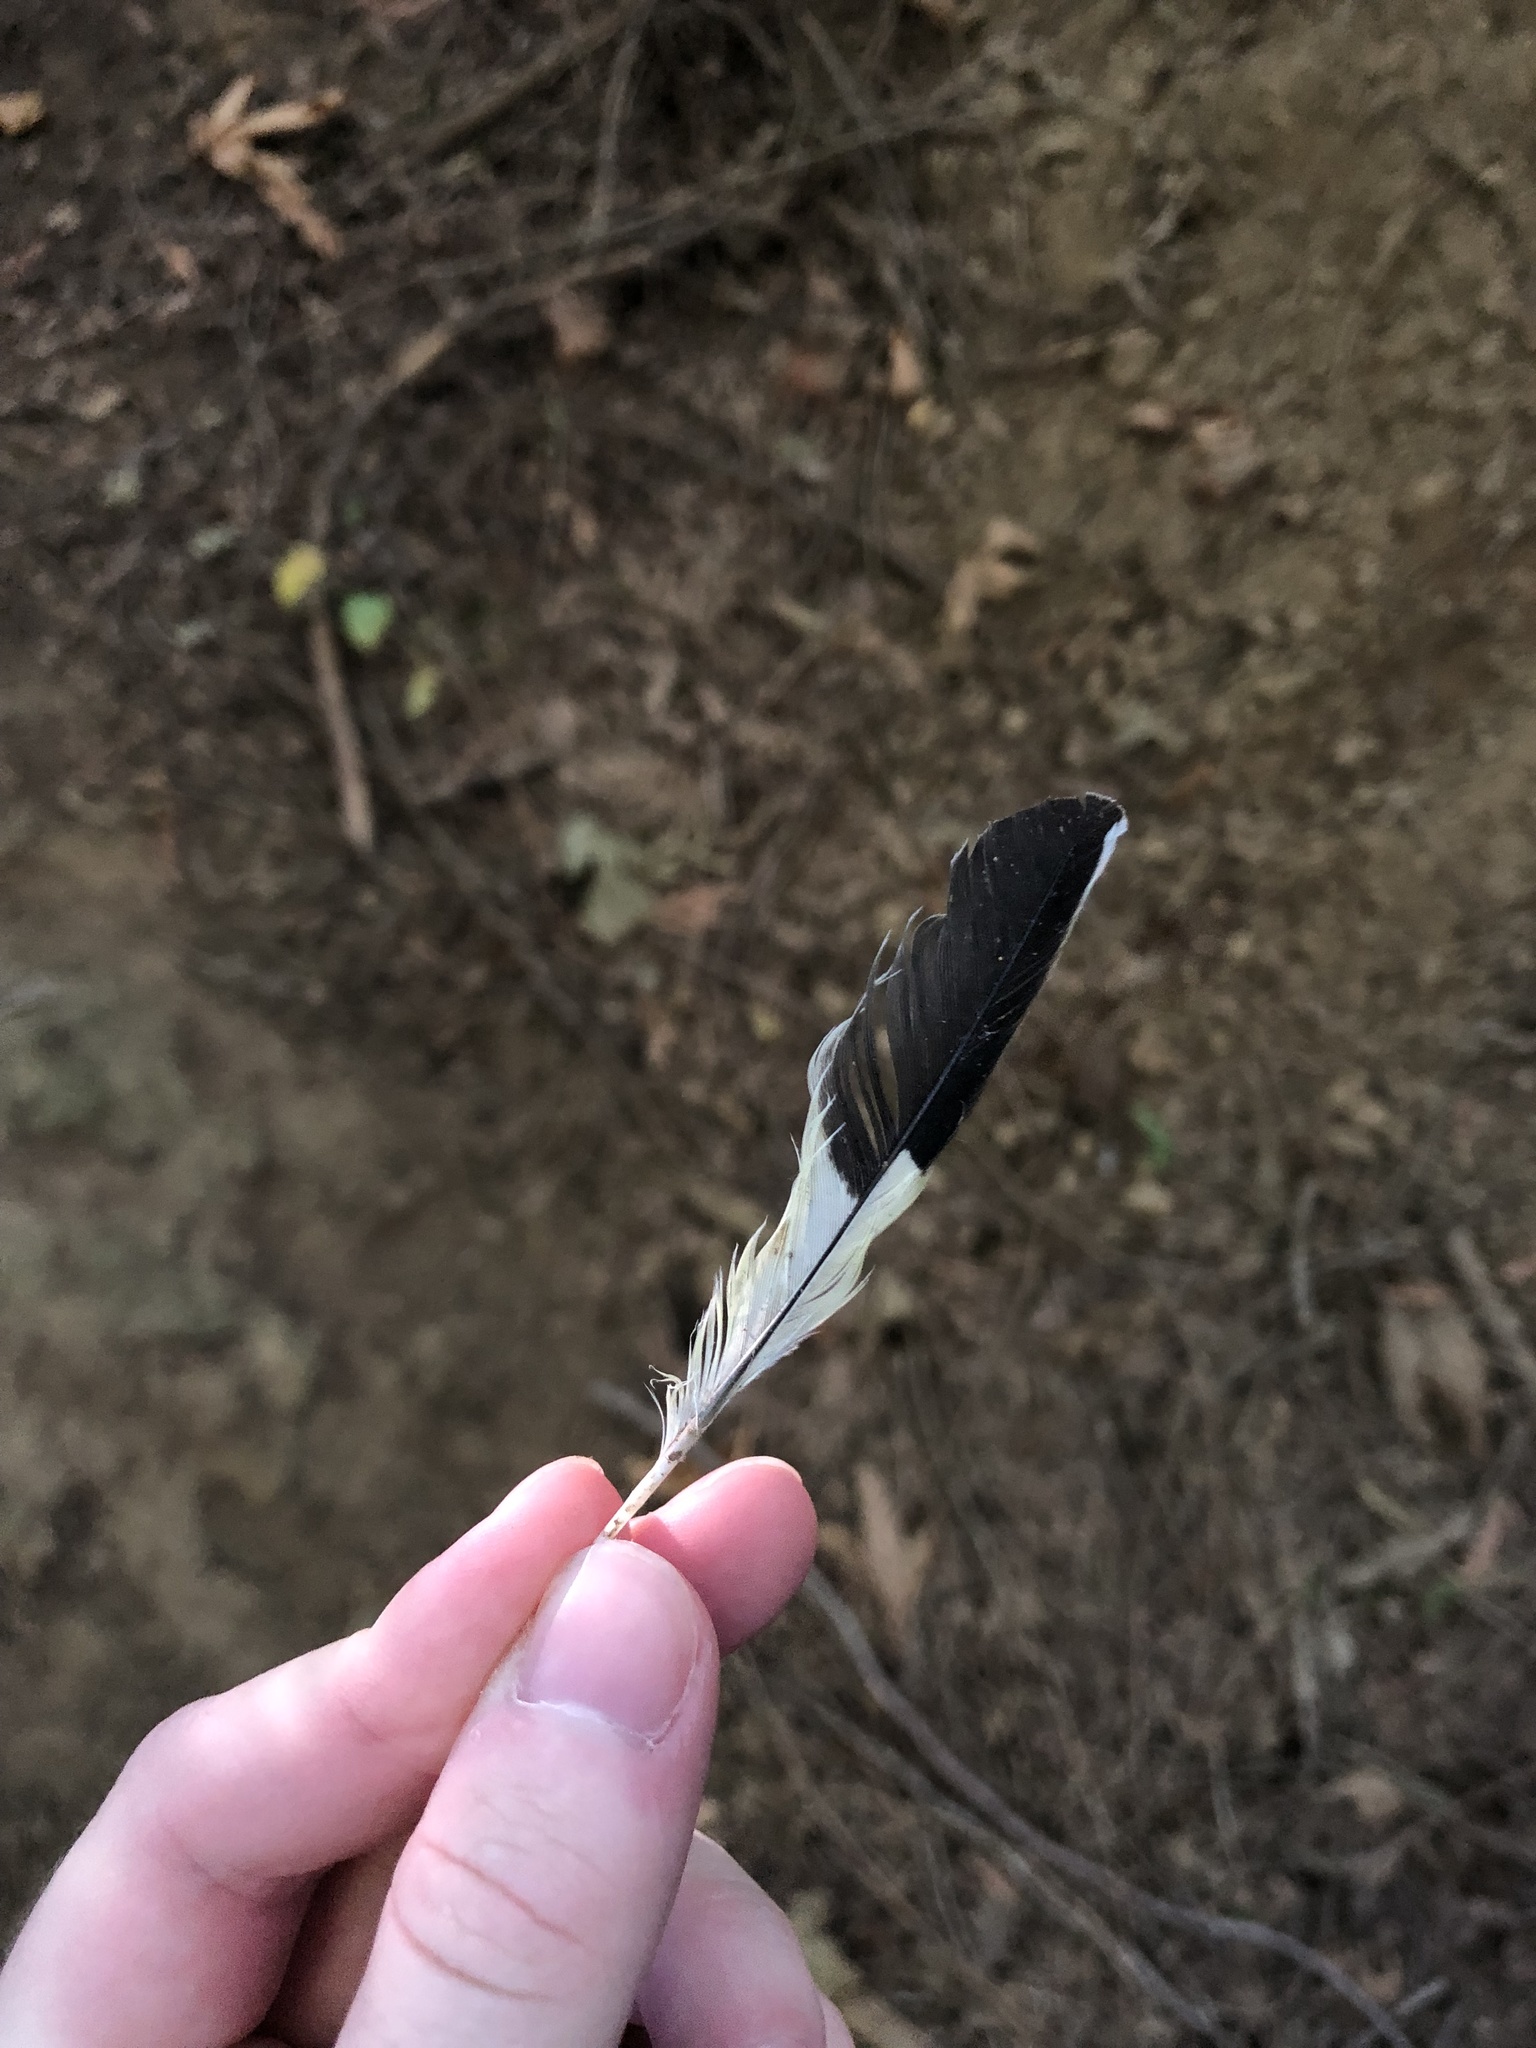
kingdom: Animalia
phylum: Chordata
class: Aves
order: Passeriformes
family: Cardinalidae
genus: Pheucticus
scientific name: Pheucticus melanocephalus
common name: Black-headed grosbeak
